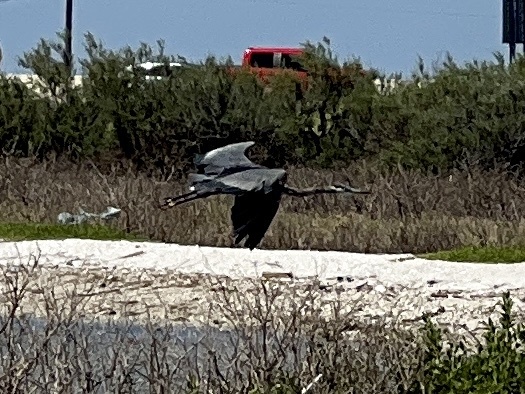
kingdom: Animalia
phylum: Chordata
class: Aves
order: Pelecaniformes
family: Ardeidae
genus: Ardea
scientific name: Ardea herodias
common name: Great blue heron
